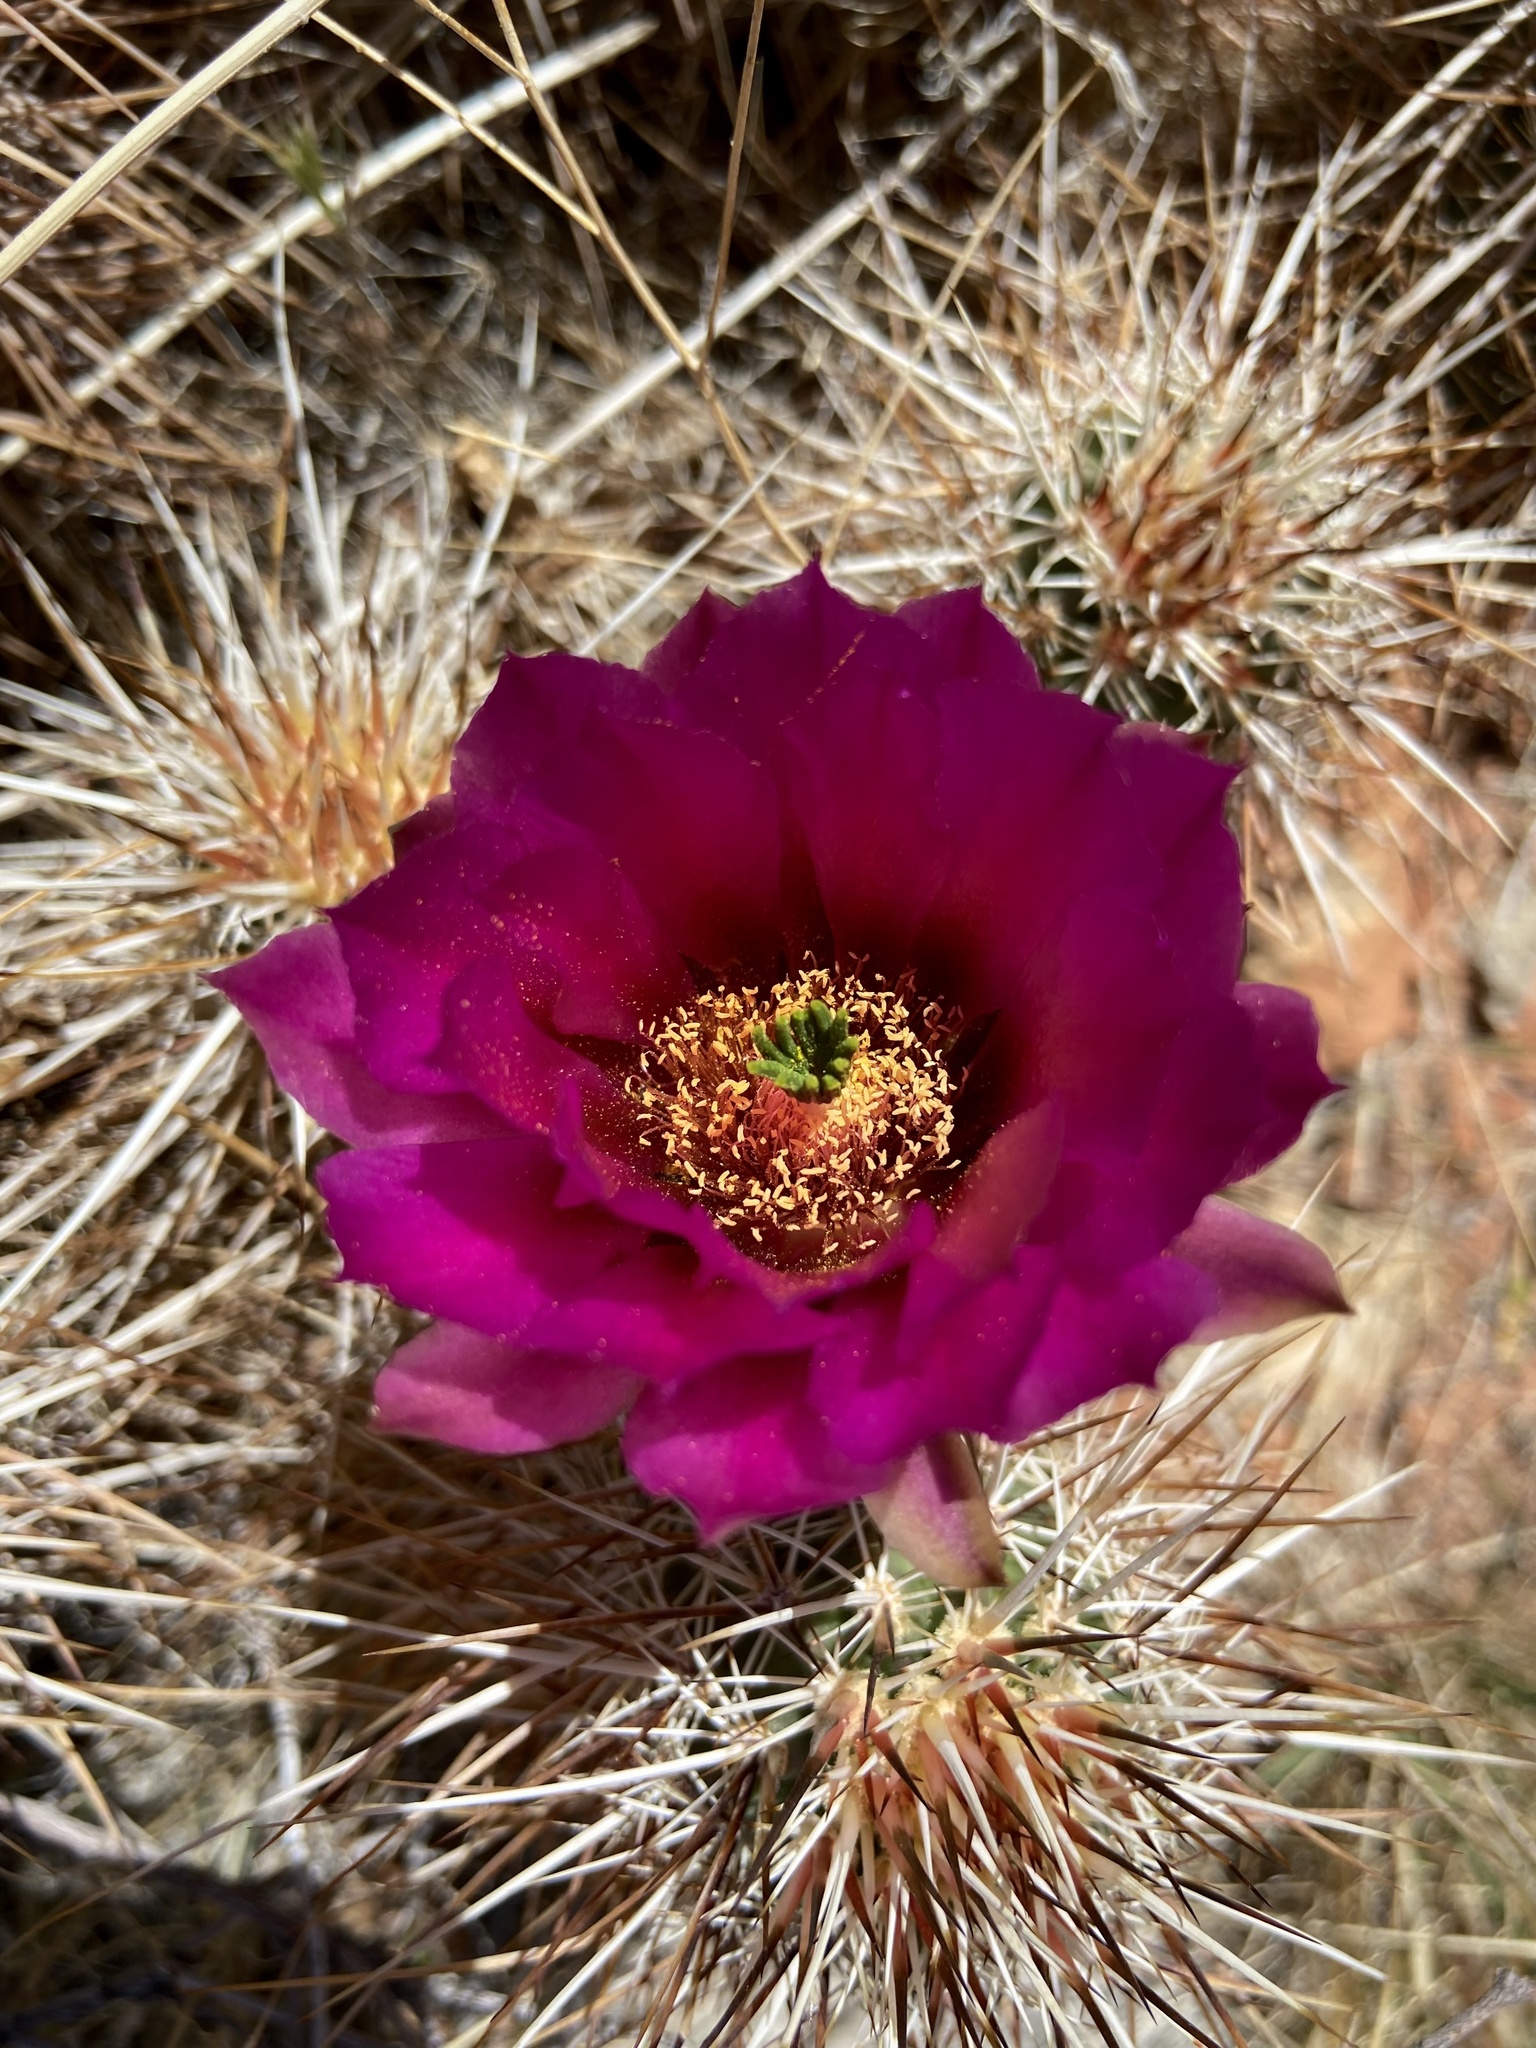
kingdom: Plantae
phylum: Tracheophyta
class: Magnoliopsida
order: Caryophyllales
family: Cactaceae
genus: Echinocereus
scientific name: Echinocereus engelmannii
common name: Engelmann's hedgehog cactus
